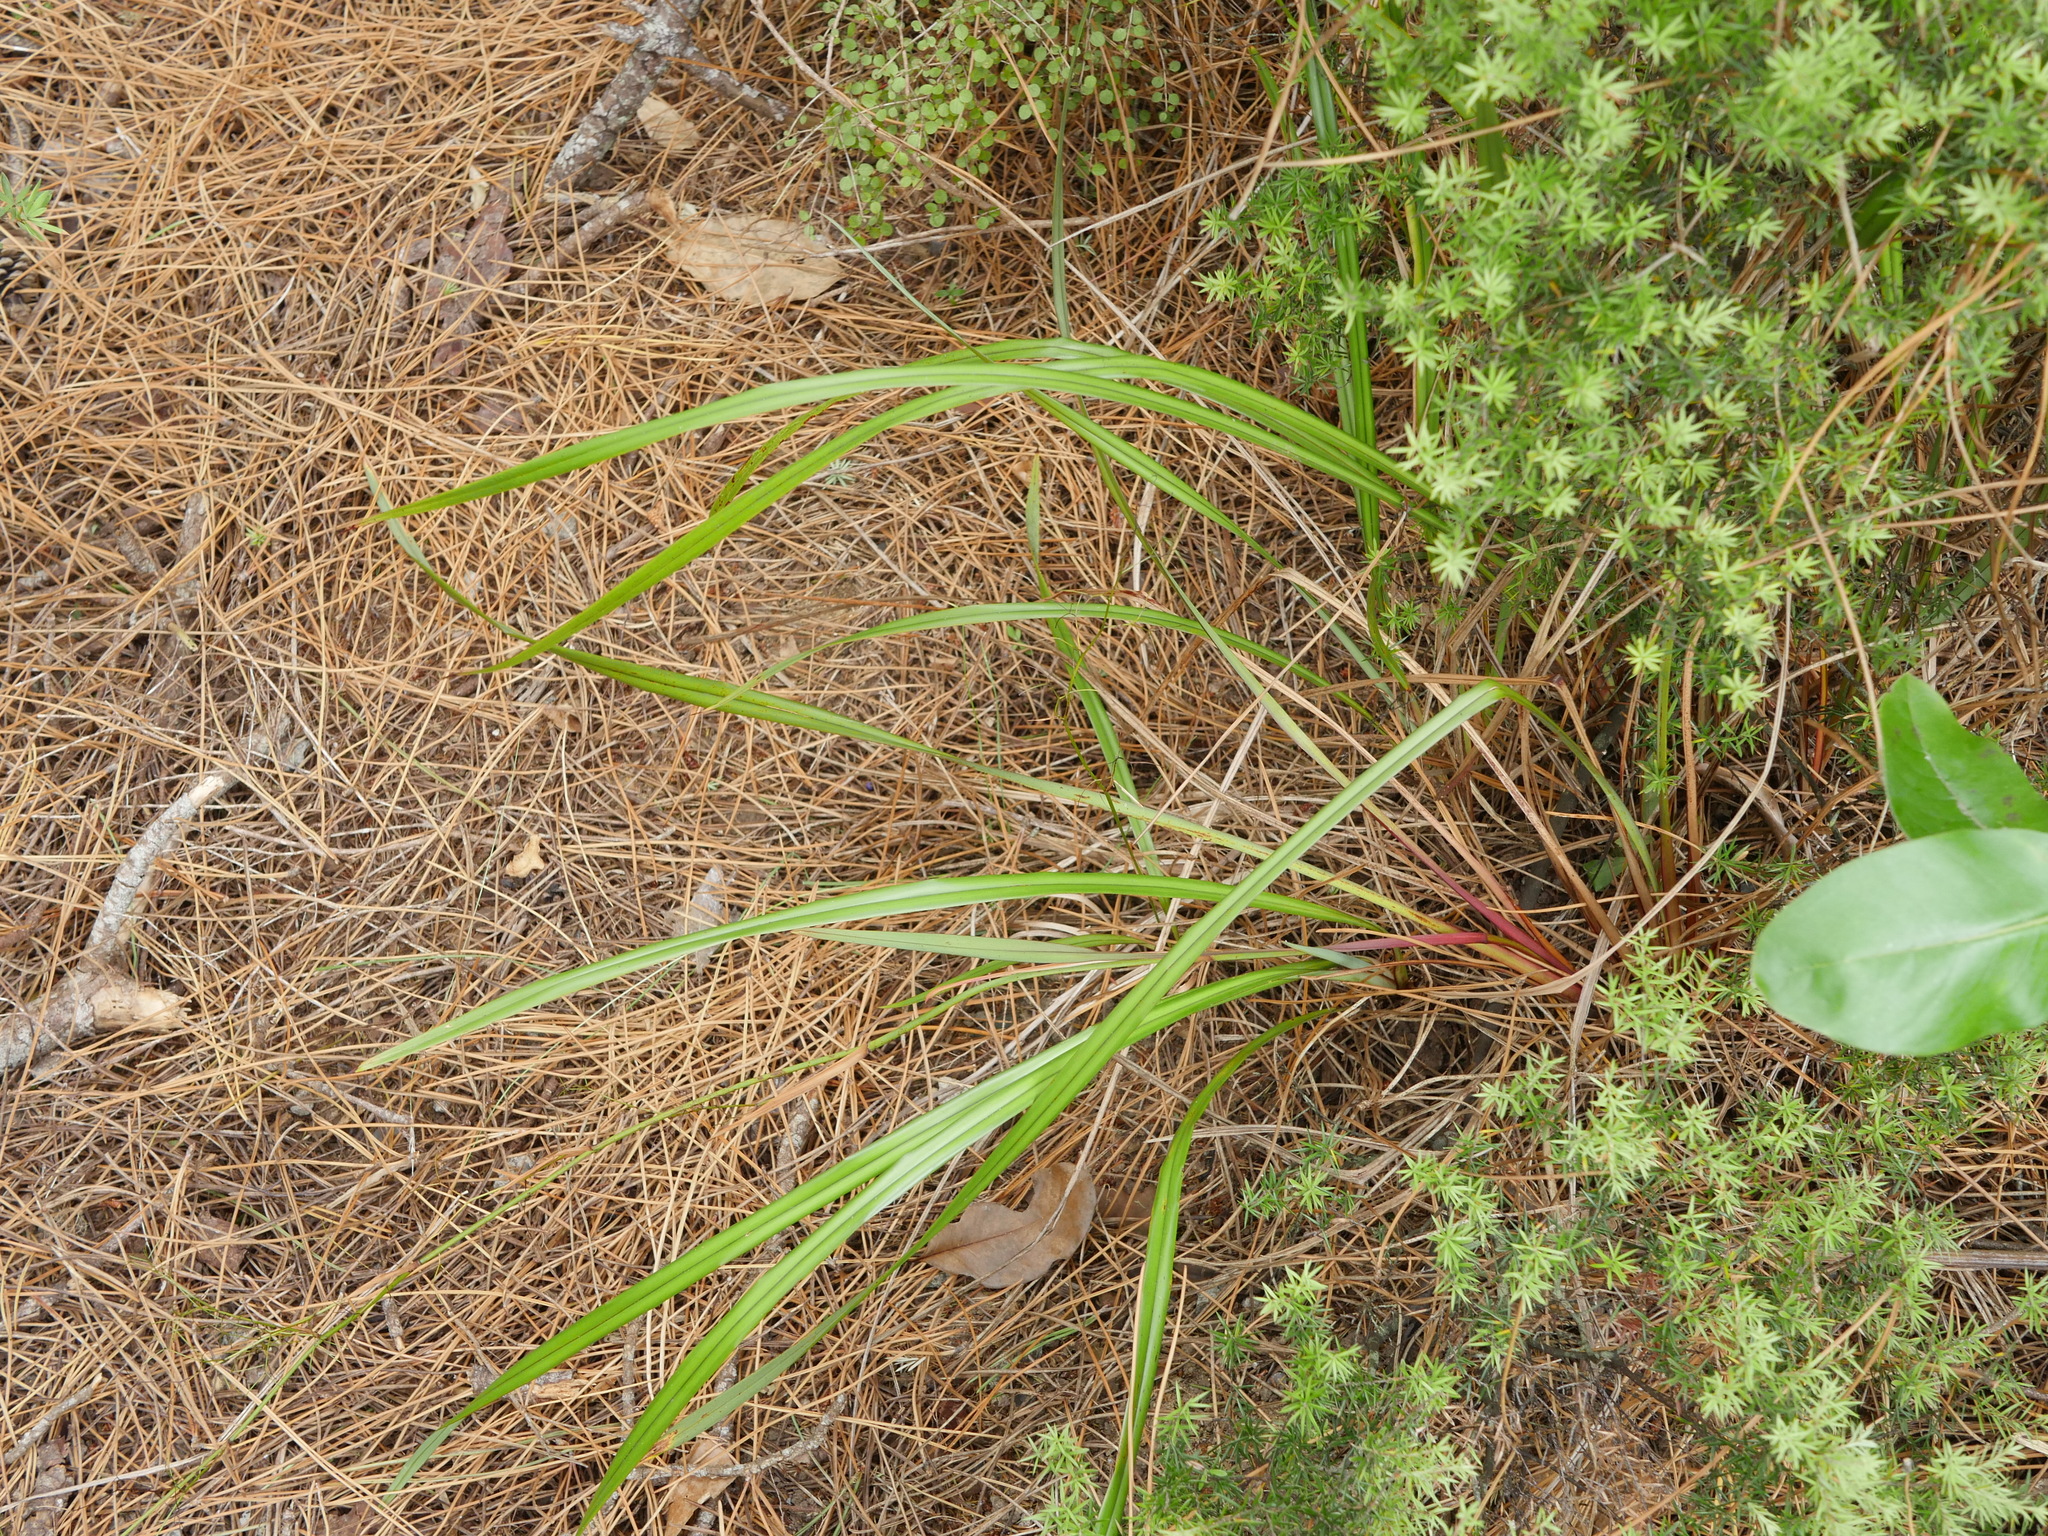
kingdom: Plantae
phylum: Tracheophyta
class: Liliopsida
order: Asparagales
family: Asphodelaceae
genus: Dianella
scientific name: Dianella nigra
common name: New zealand-blueberry
